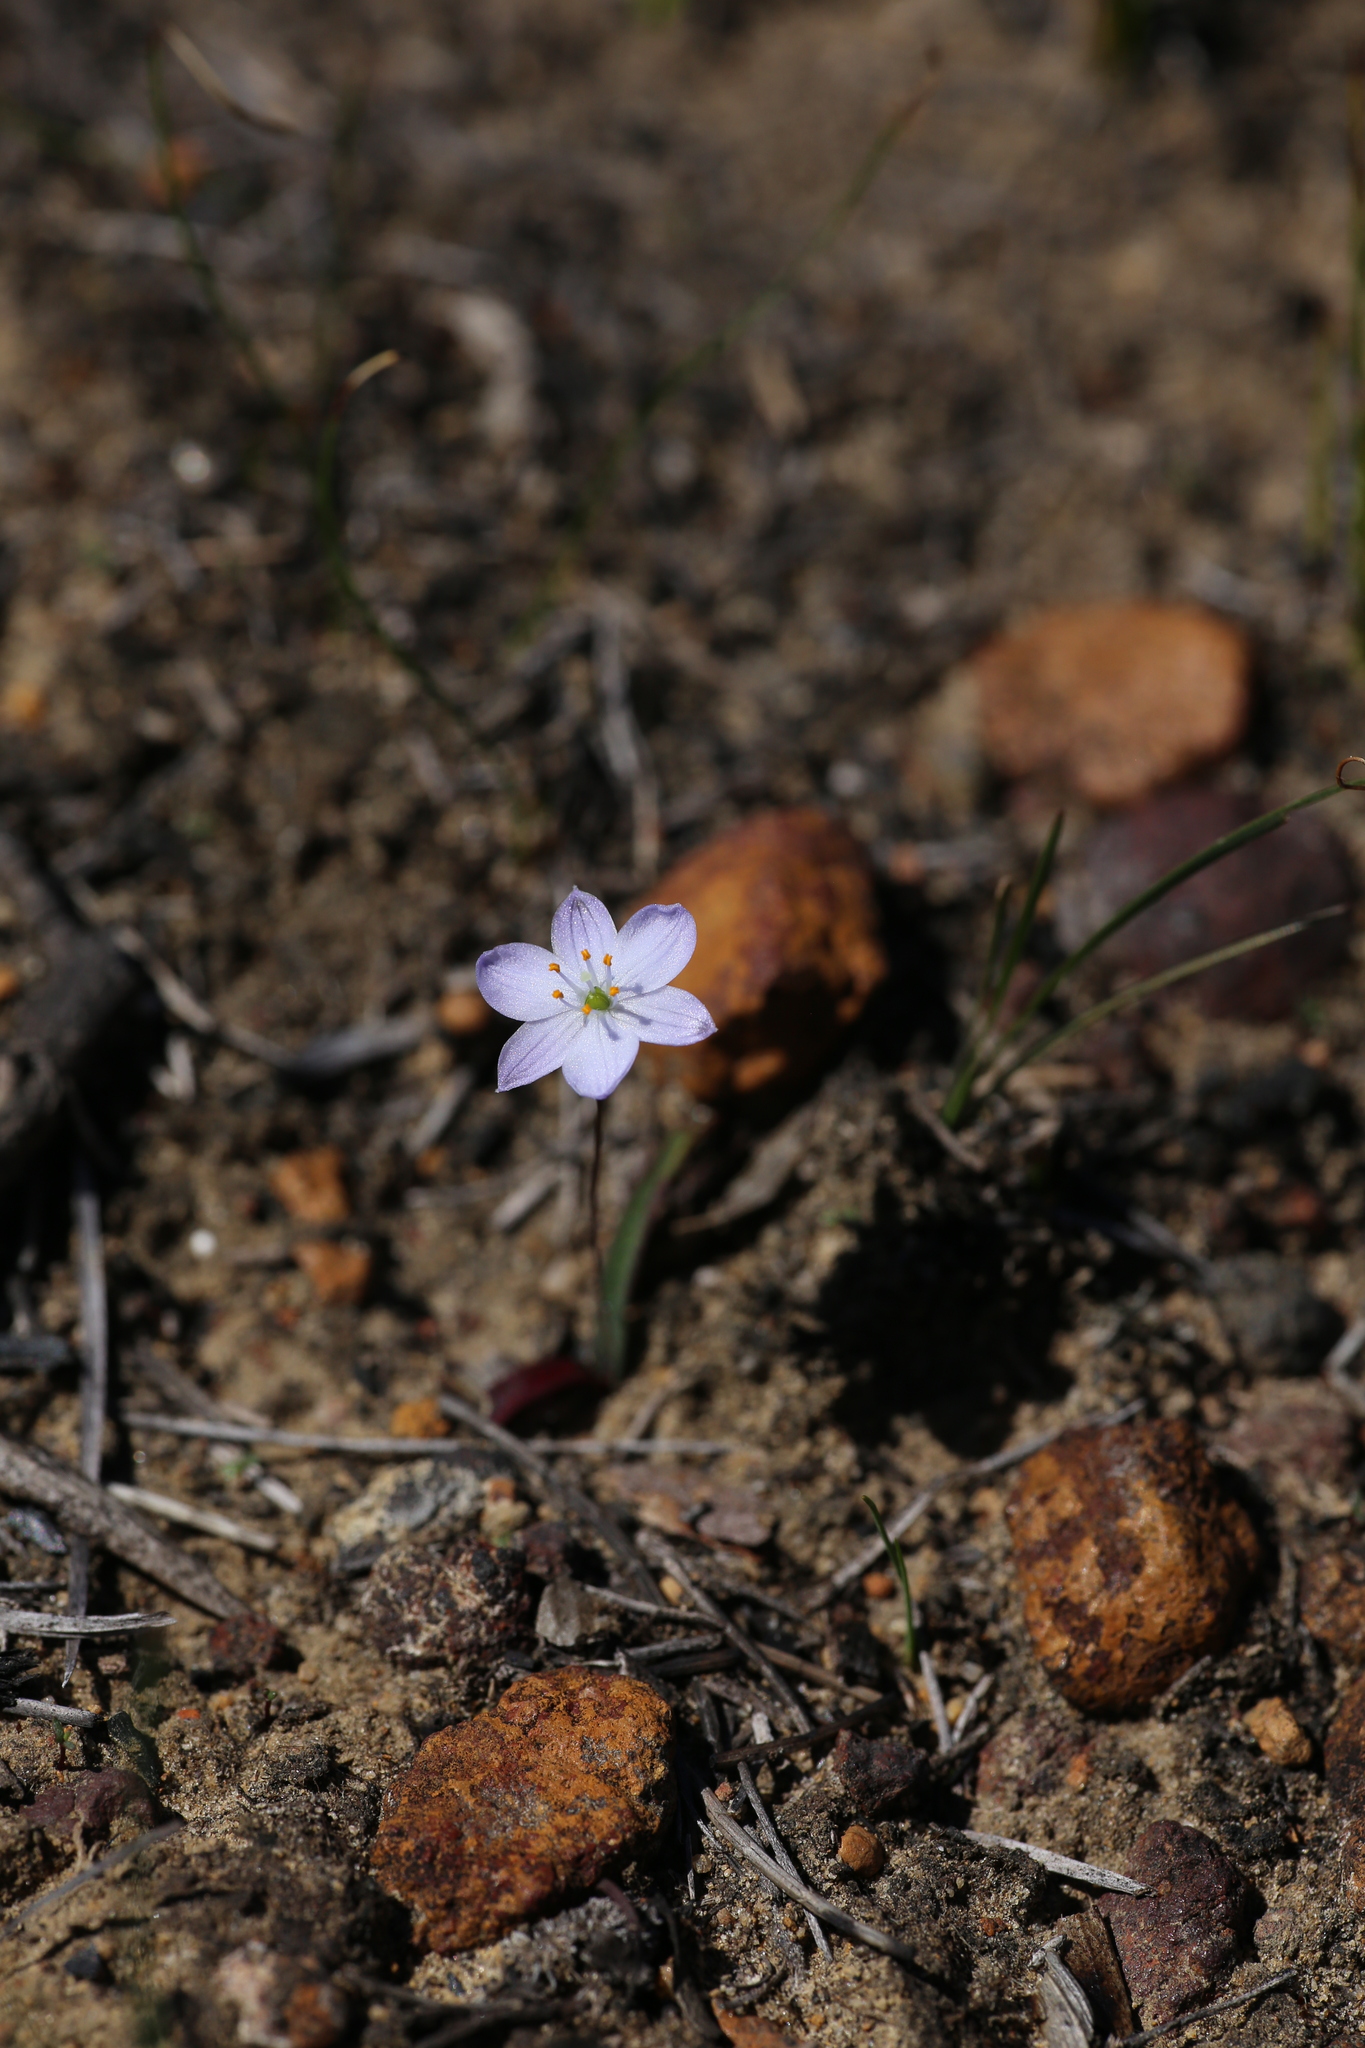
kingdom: Plantae
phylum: Tracheophyta
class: Liliopsida
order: Asparagales
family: Asphodelaceae
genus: Chamaescilla
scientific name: Chamaescilla corymbosa
